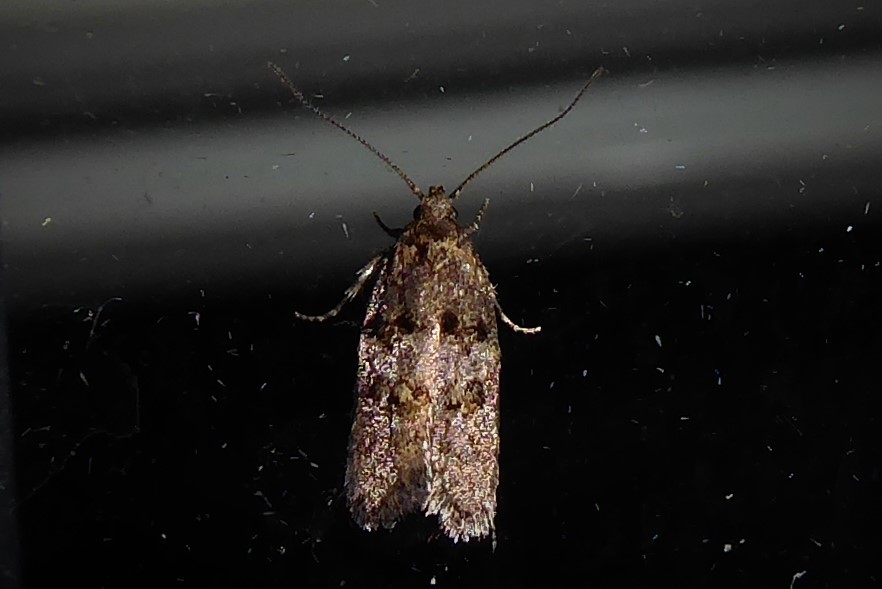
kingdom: Animalia
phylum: Arthropoda
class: Insecta
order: Lepidoptera
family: Oecophoridae
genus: Trachypepla
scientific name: Trachypepla anastrella
